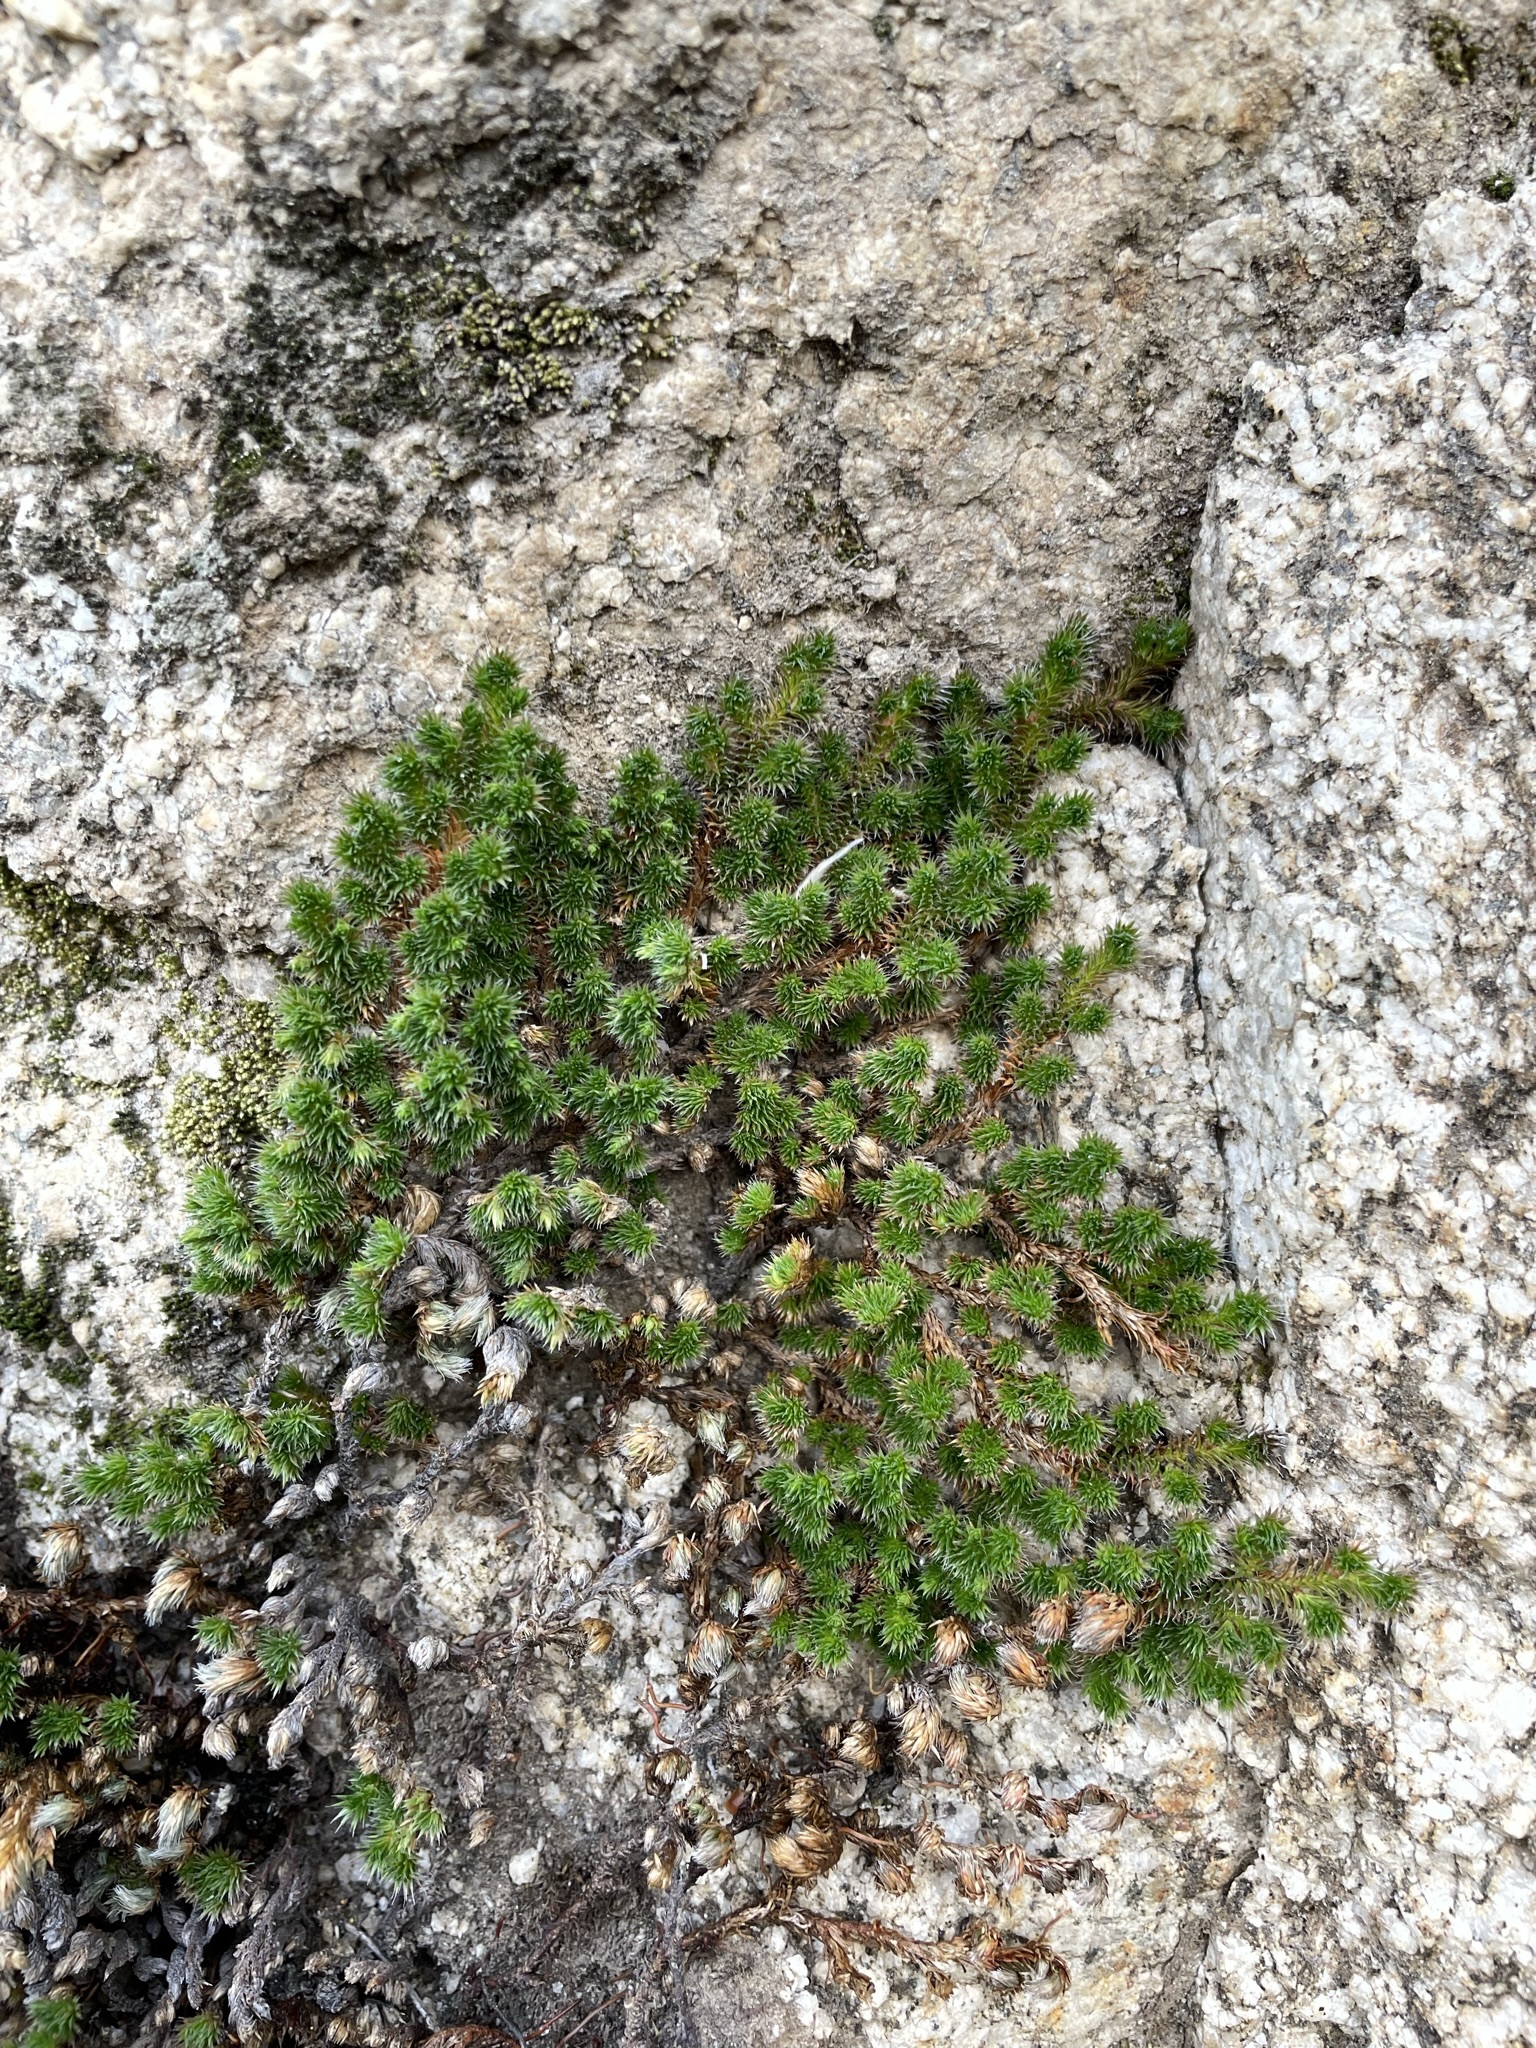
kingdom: Plantae
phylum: Tracheophyta
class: Lycopodiopsida
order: Selaginellales
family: Selaginellaceae
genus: Selaginella
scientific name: Selaginella hansenii
